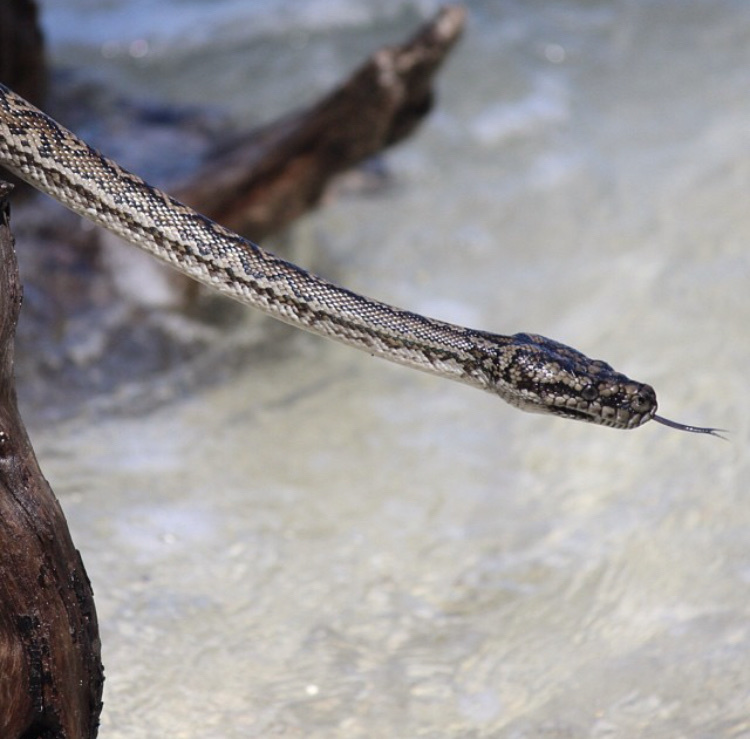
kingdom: Animalia
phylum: Chordata
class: Squamata
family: Pythonidae
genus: Morelia
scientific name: Morelia spilota
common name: Carpet python
